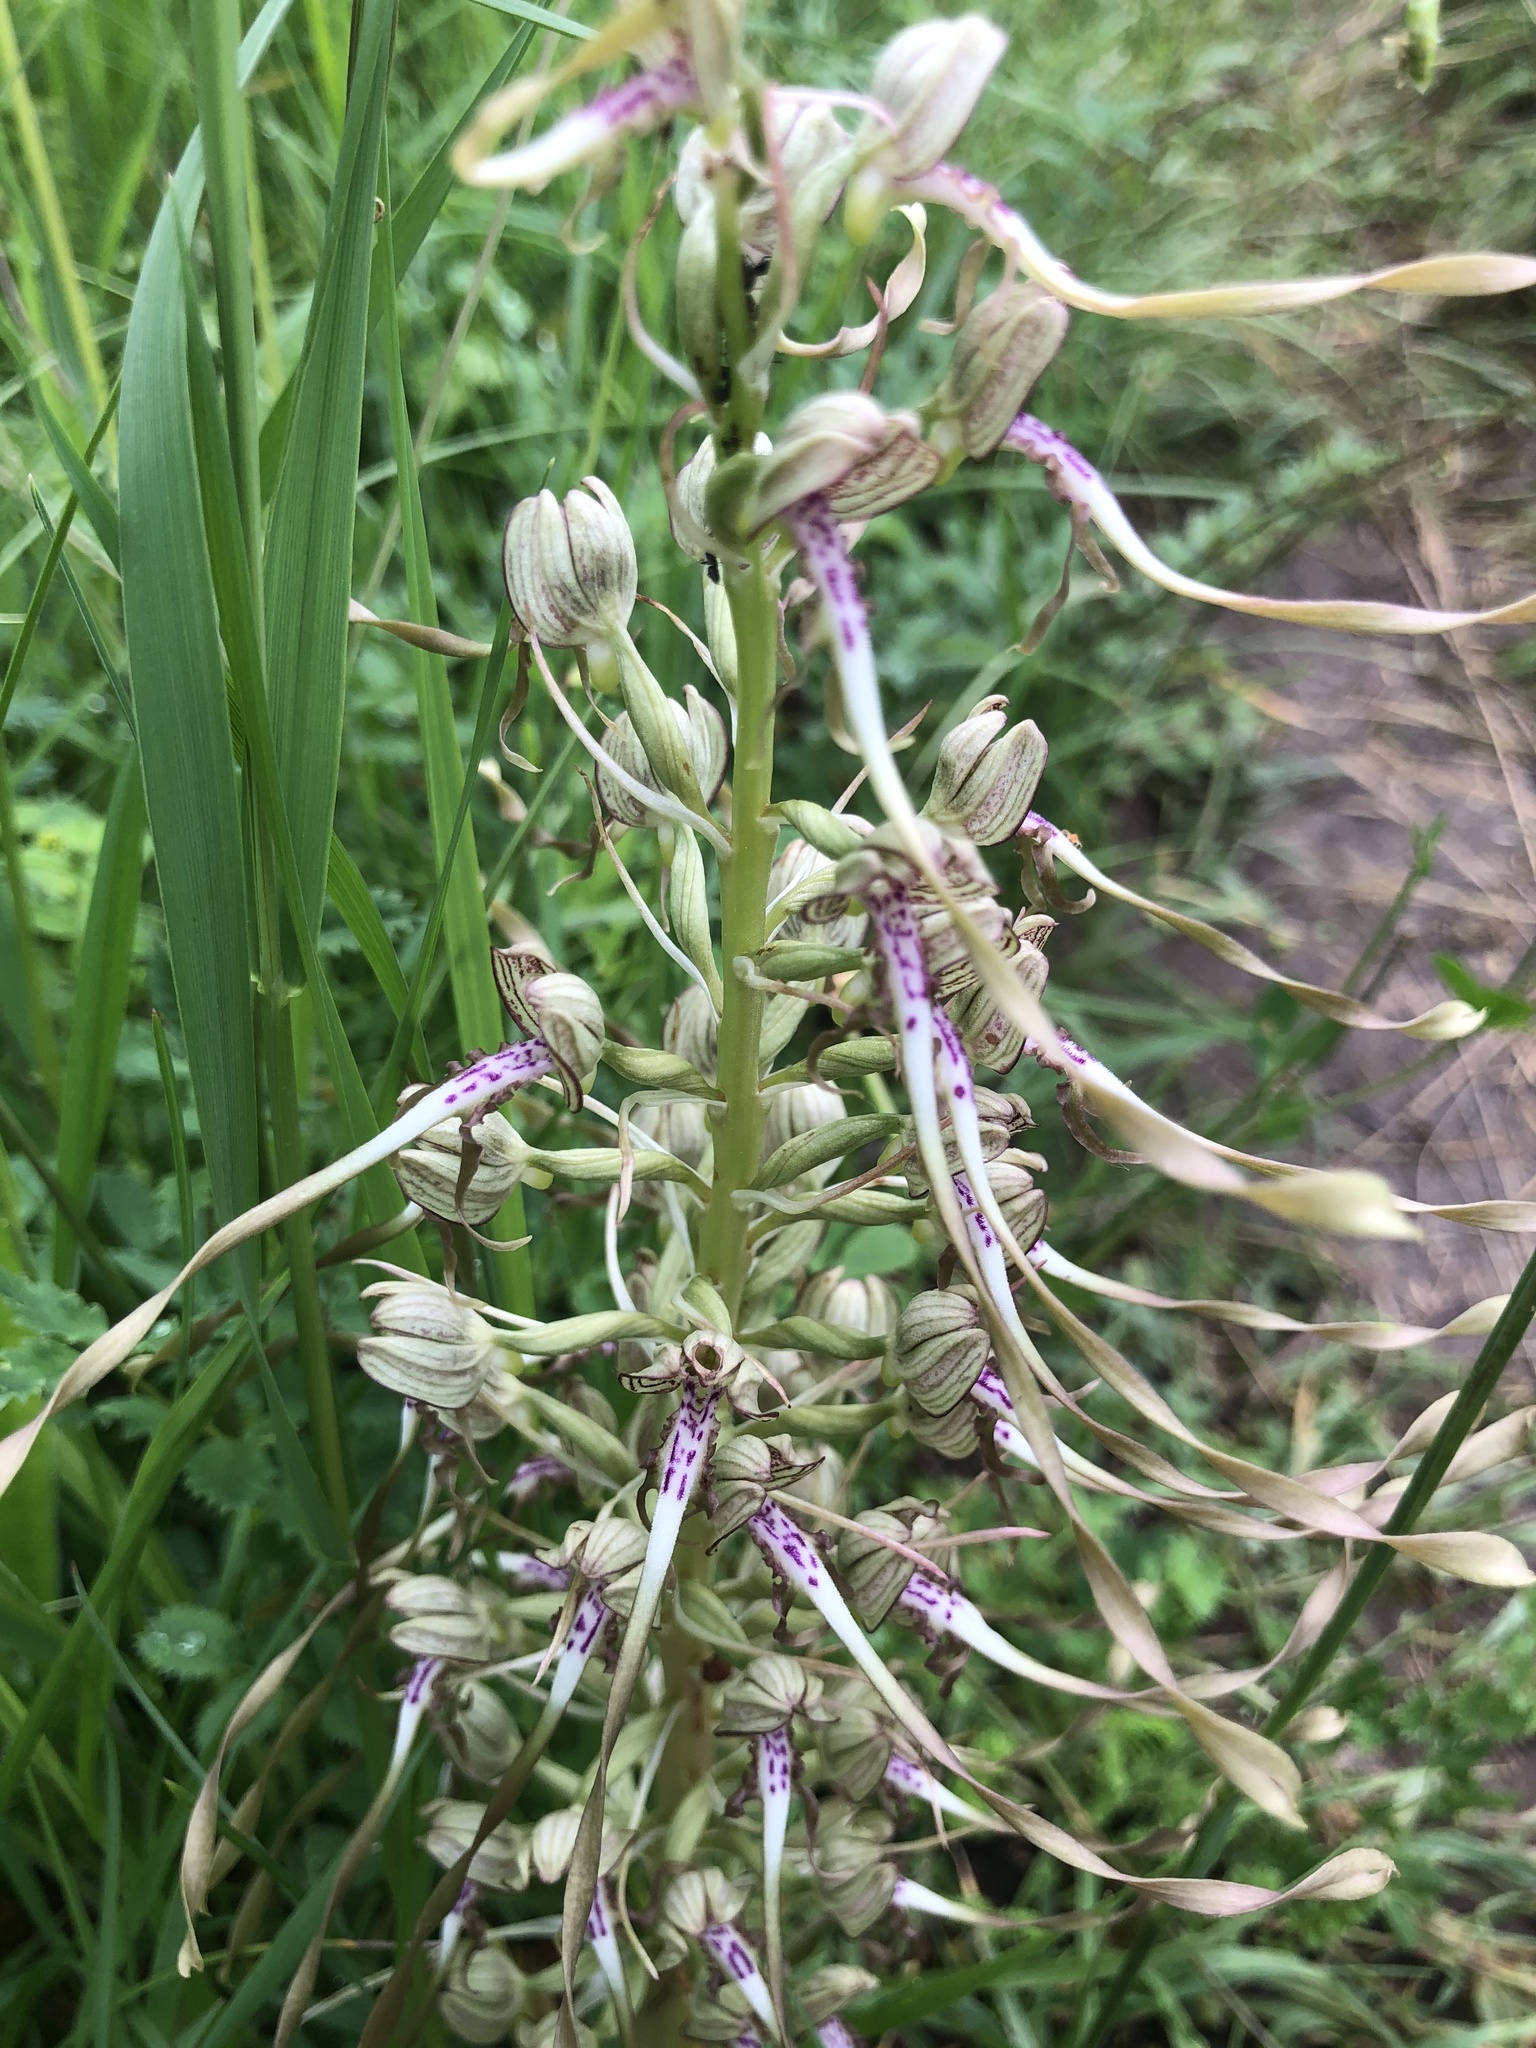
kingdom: Plantae
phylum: Tracheophyta
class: Liliopsida
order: Asparagales
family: Orchidaceae
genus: Himantoglossum
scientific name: Himantoglossum hircinum
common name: Lizard orchid
